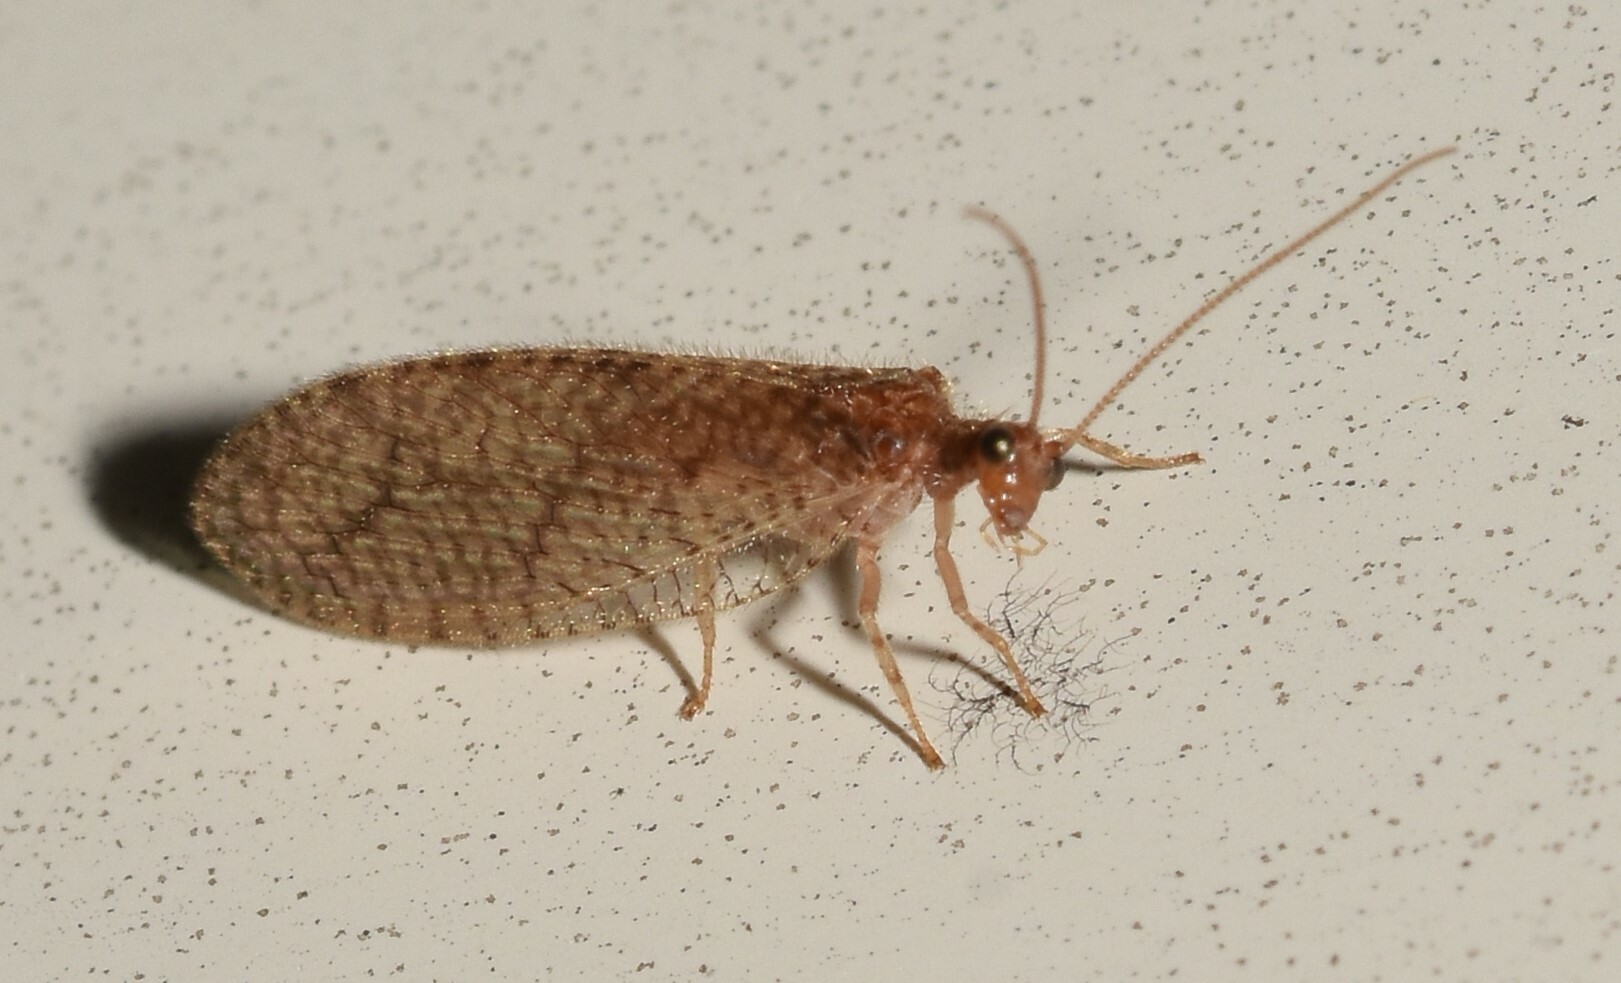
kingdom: Animalia
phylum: Arthropoda
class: Insecta
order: Neuroptera
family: Hemerobiidae
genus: Micromus
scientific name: Micromus posticus
